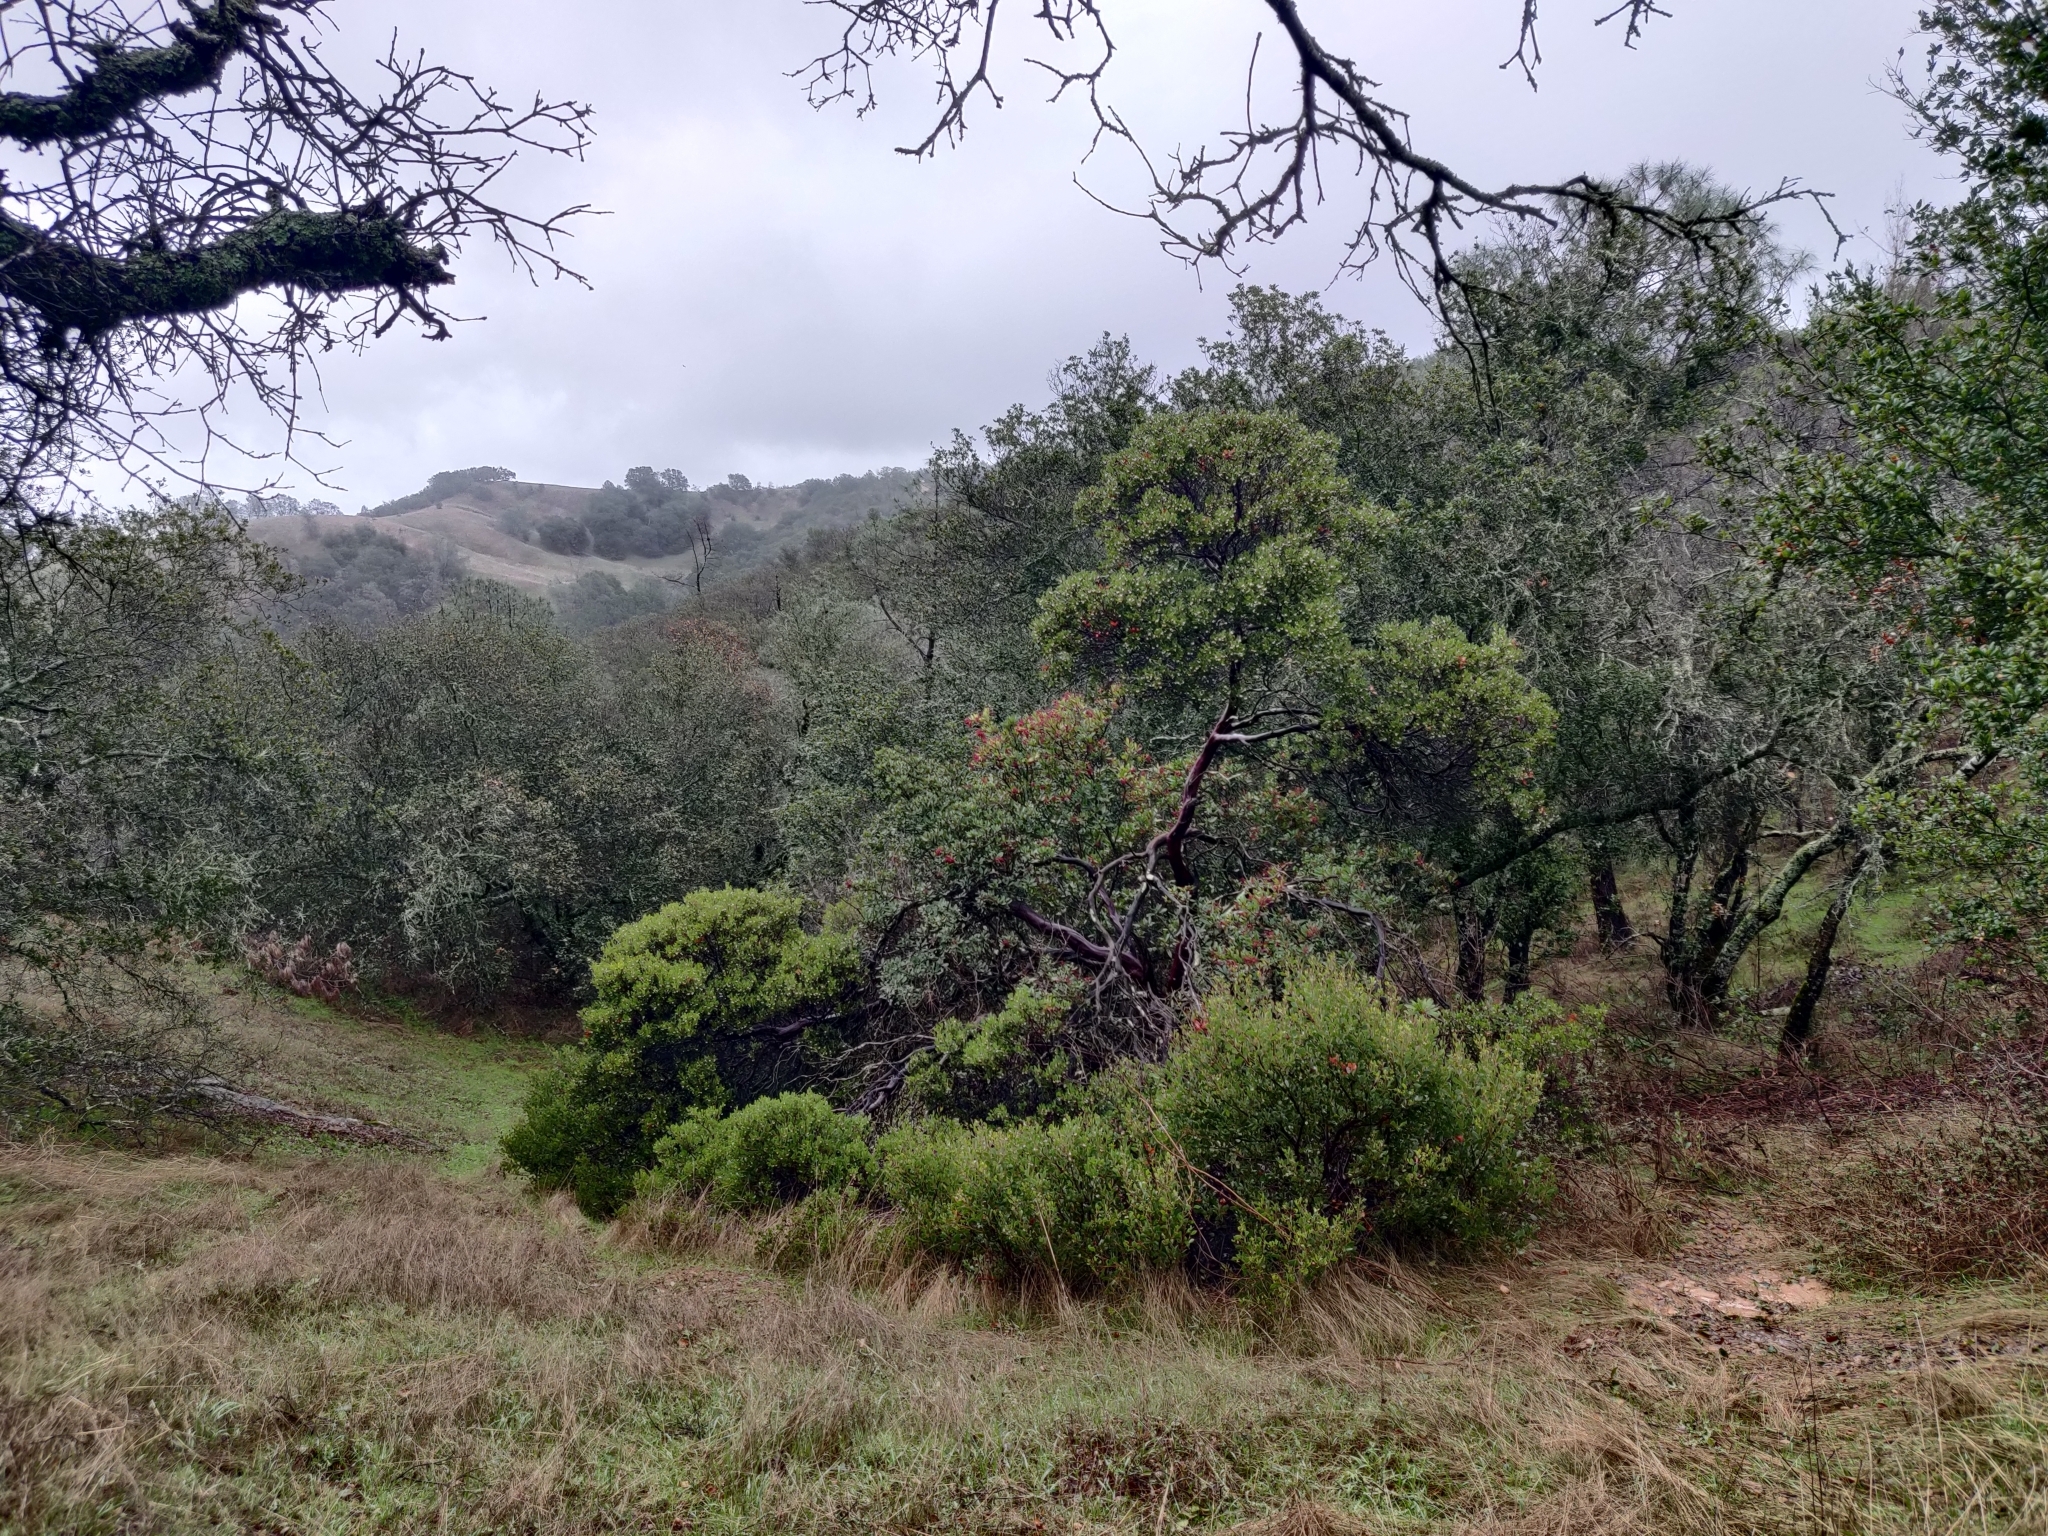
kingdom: Plantae
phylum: Tracheophyta
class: Magnoliopsida
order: Ericales
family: Ericaceae
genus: Arctostaphylos
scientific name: Arctostaphylos manzanita
